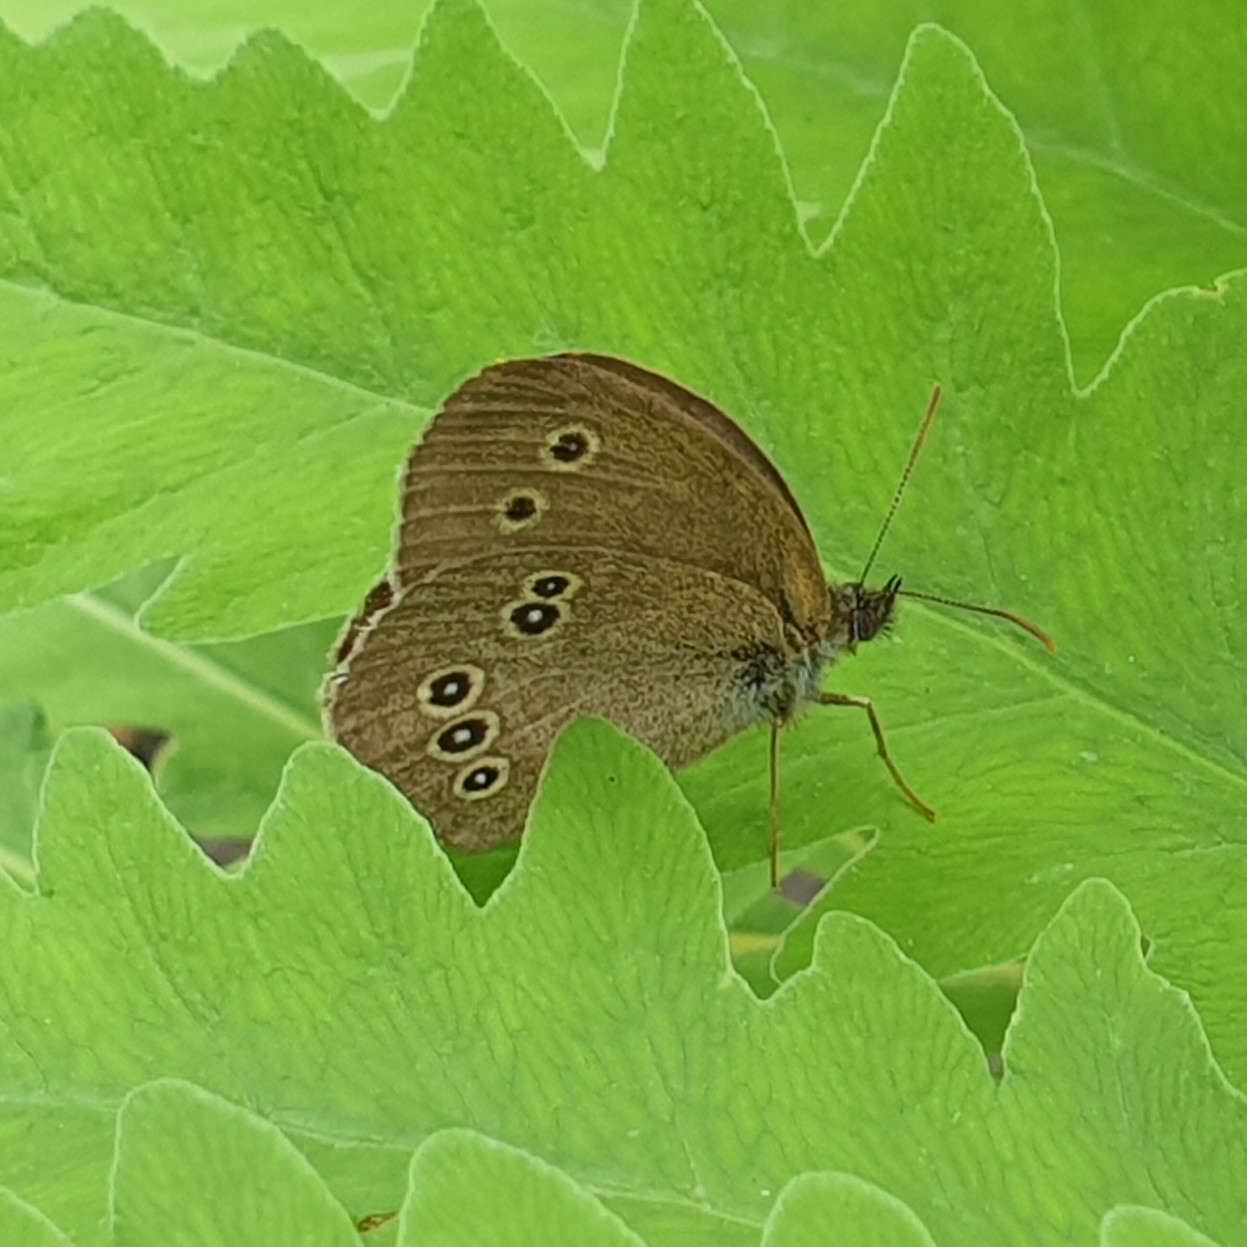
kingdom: Animalia
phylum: Arthropoda
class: Insecta
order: Lepidoptera
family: Nymphalidae
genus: Aphantopus
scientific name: Aphantopus hyperantus
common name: Ringlet
